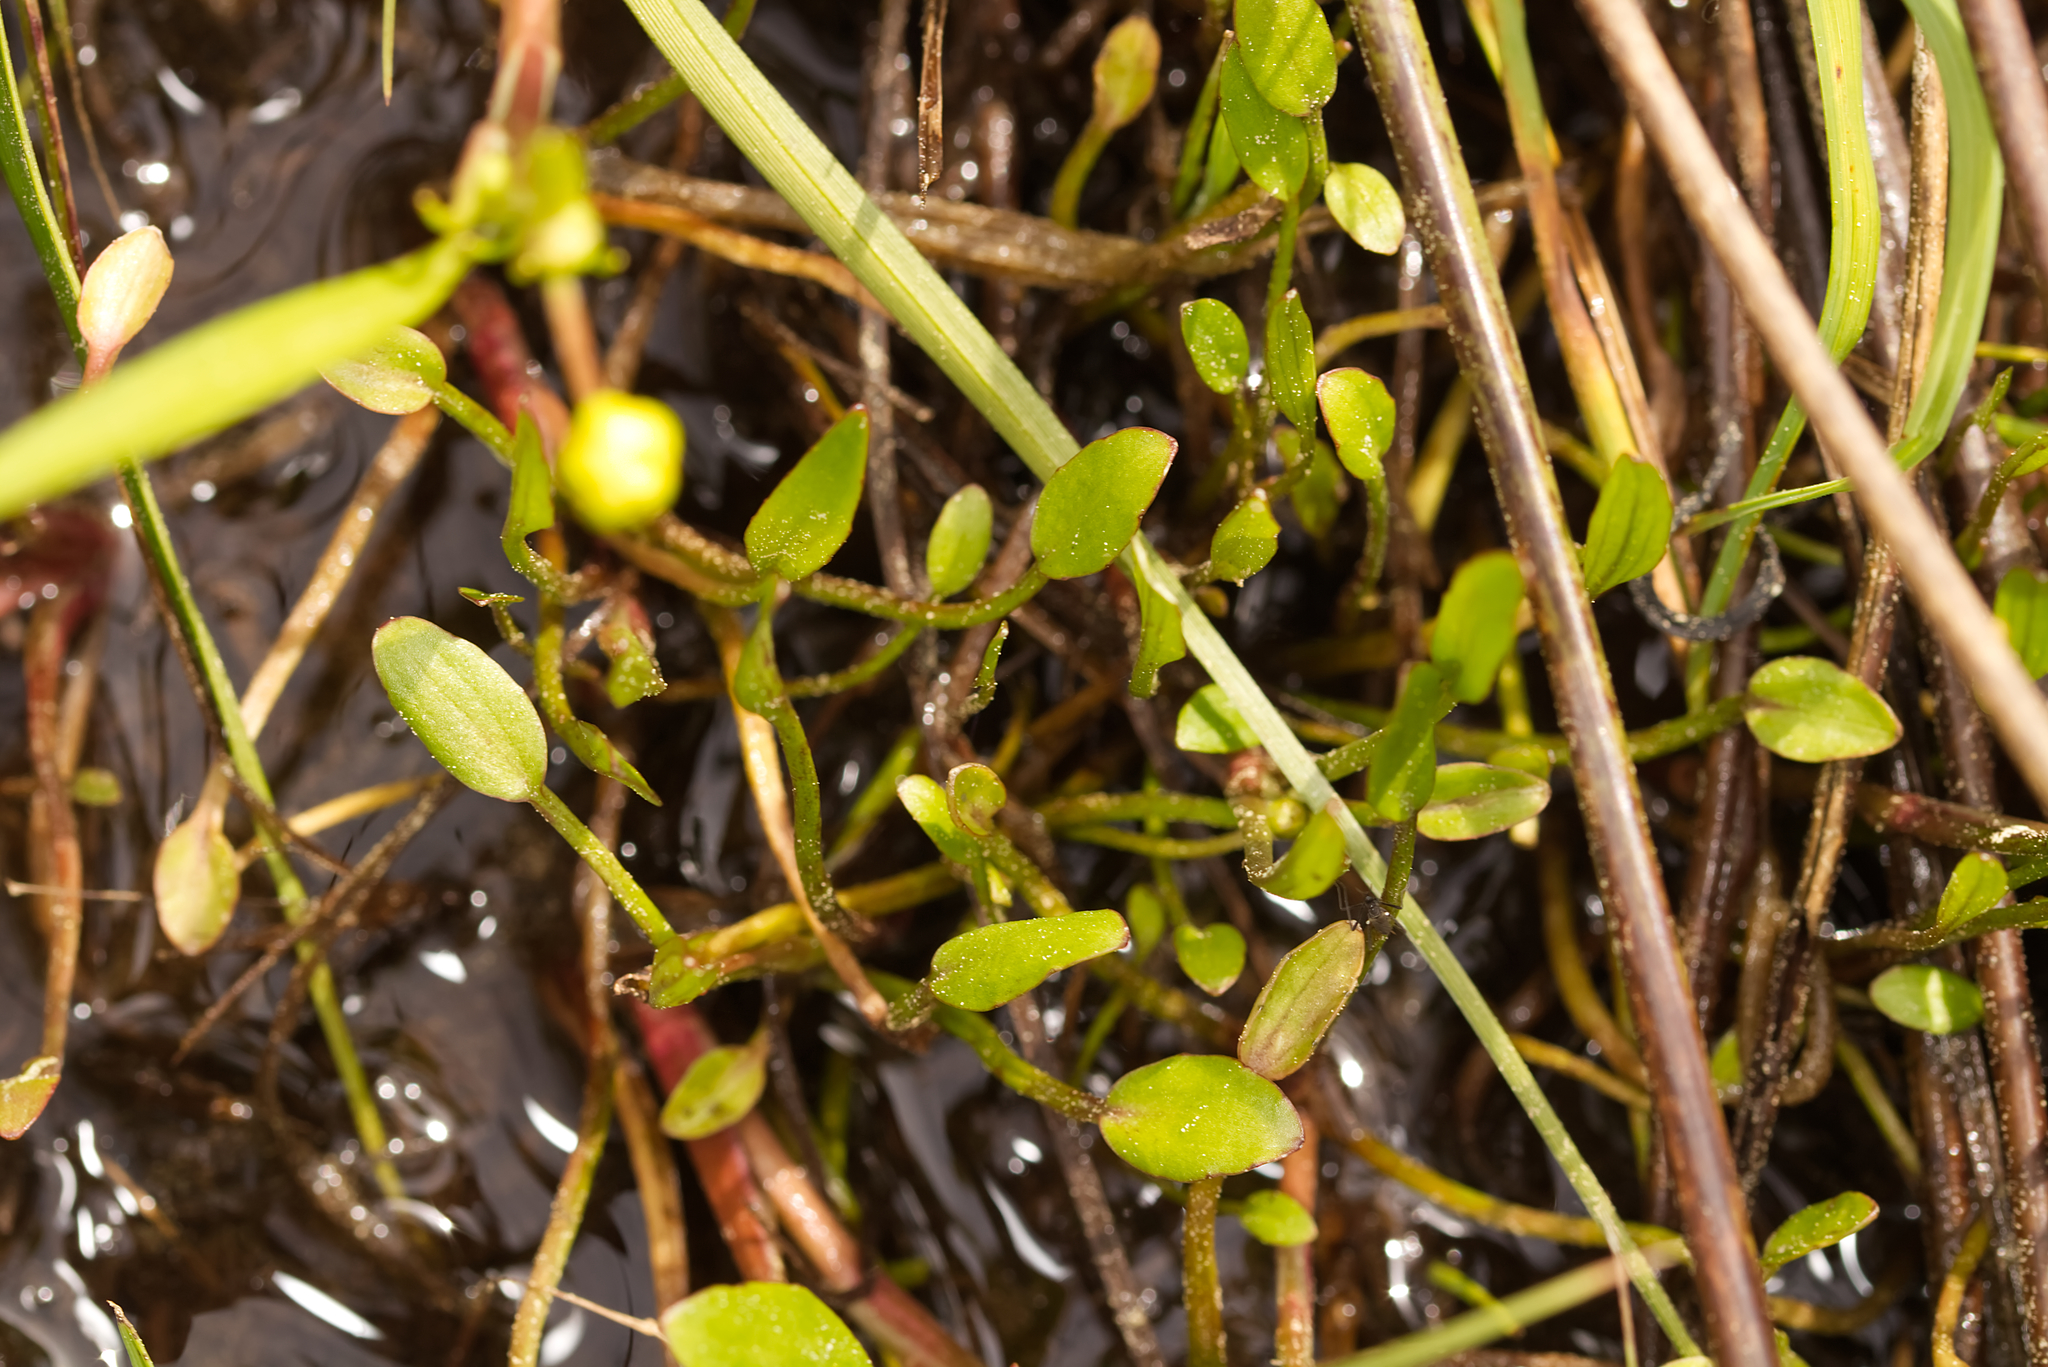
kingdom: Plantae
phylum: Tracheophyta
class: Magnoliopsida
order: Ranunculales
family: Ranunculaceae
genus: Ranunculus
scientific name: Ranunculus flammula
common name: Lesser spearwort
